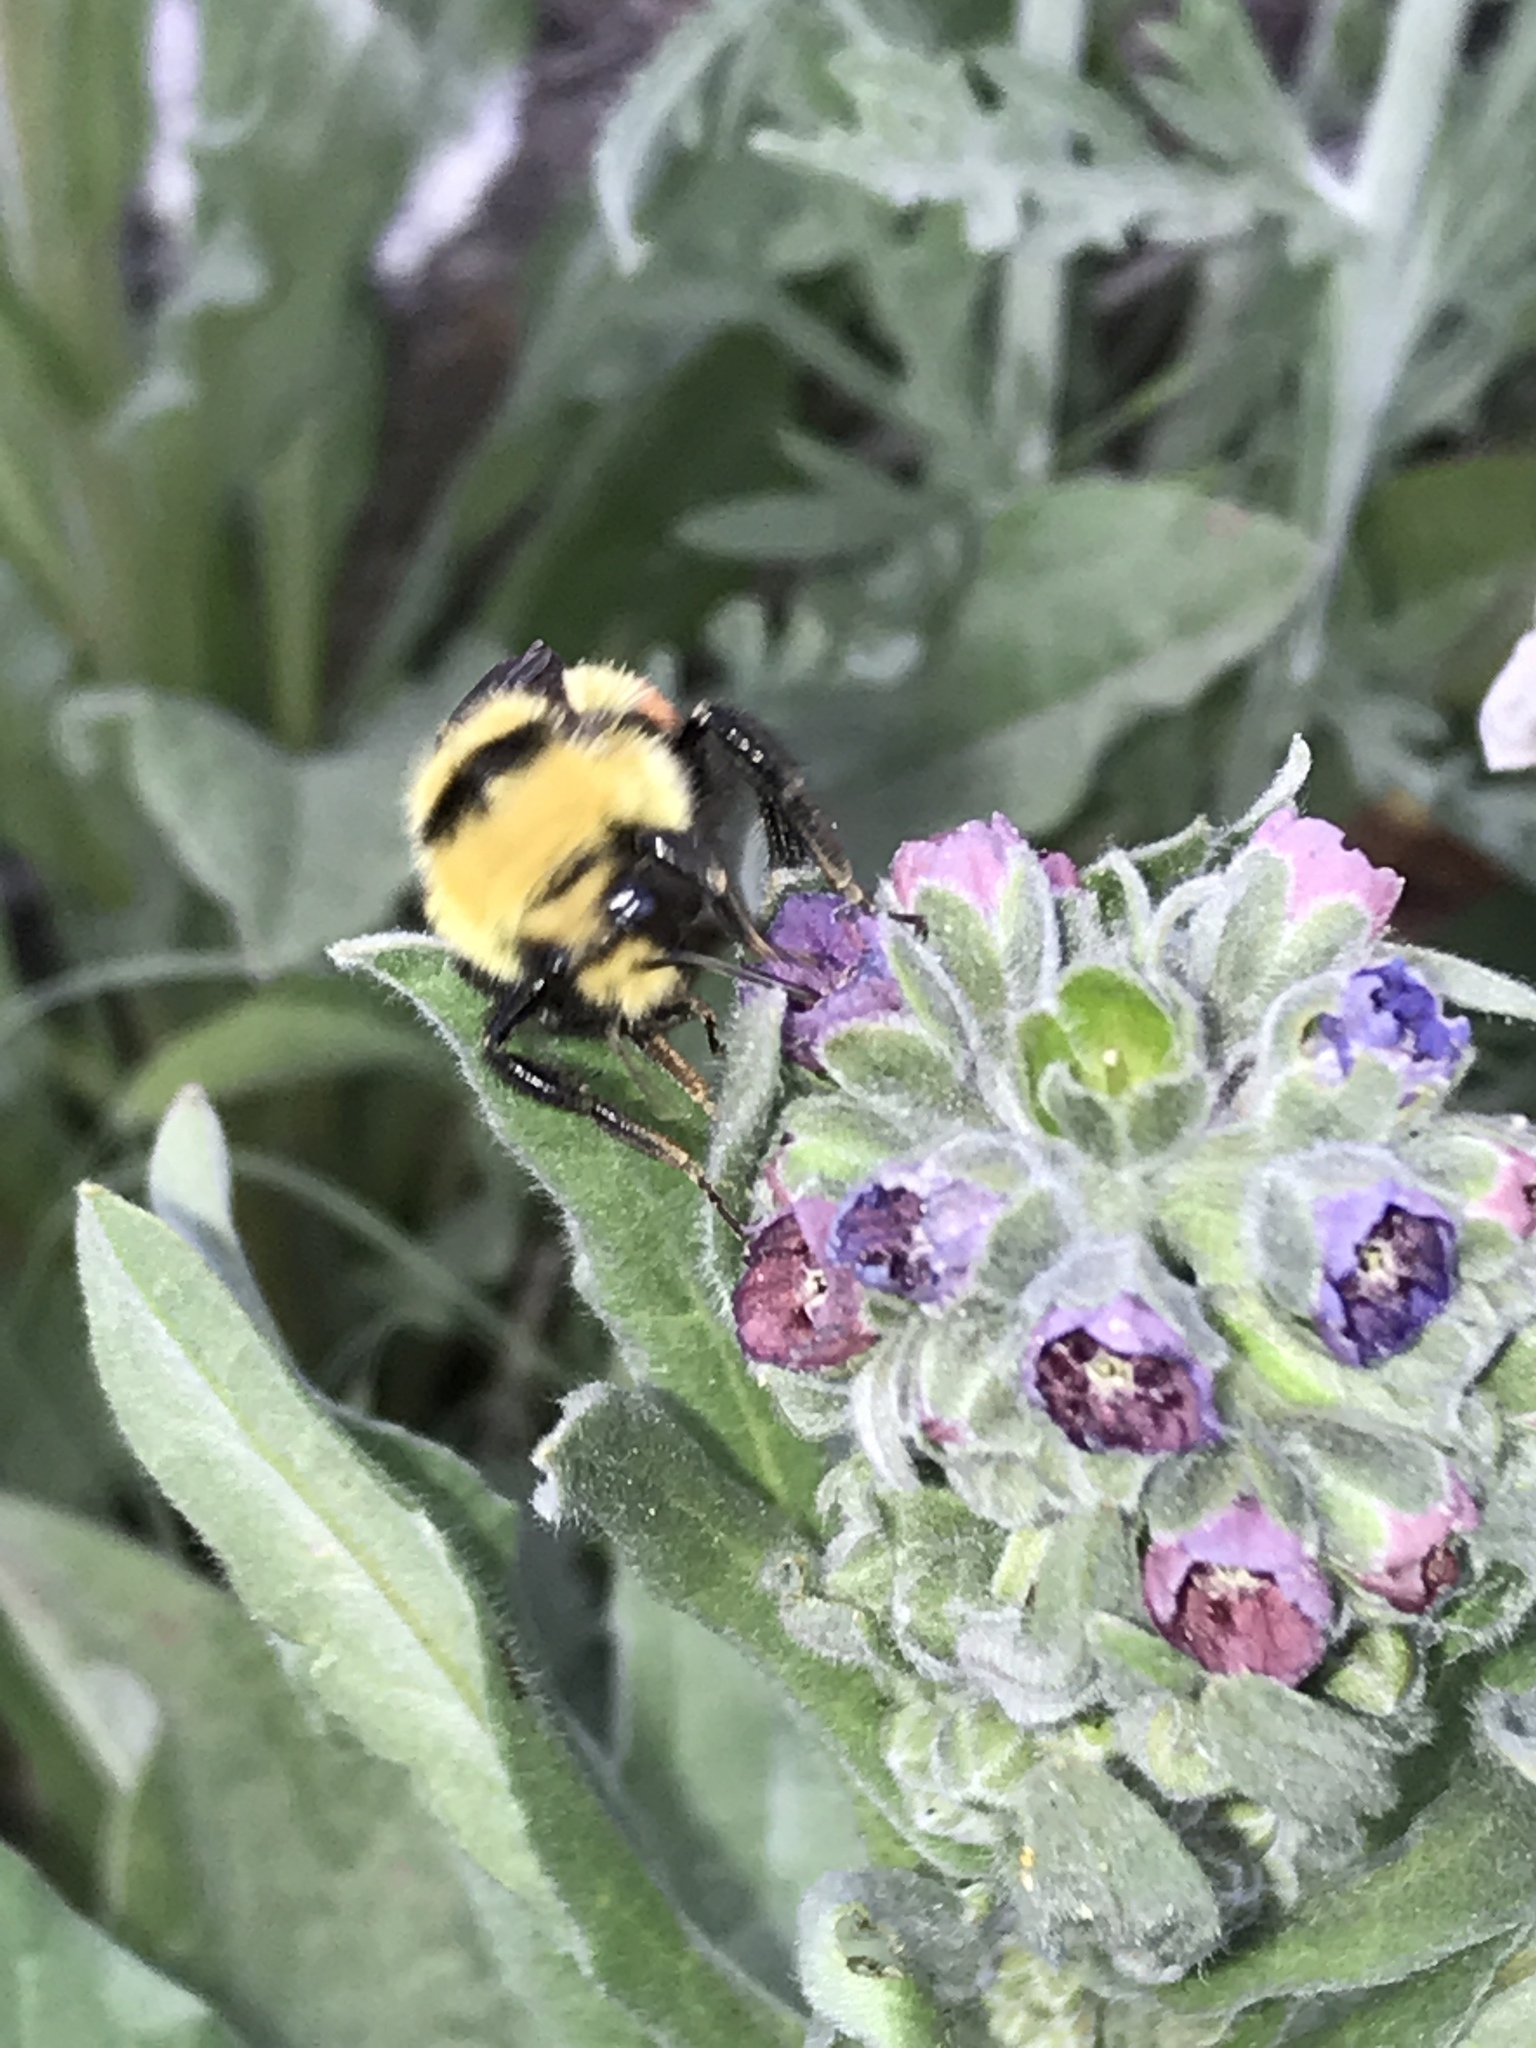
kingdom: Animalia
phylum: Arthropoda
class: Insecta
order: Hymenoptera
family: Apidae
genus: Bombus
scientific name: Bombus huntii
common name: Hunt bumble bee
